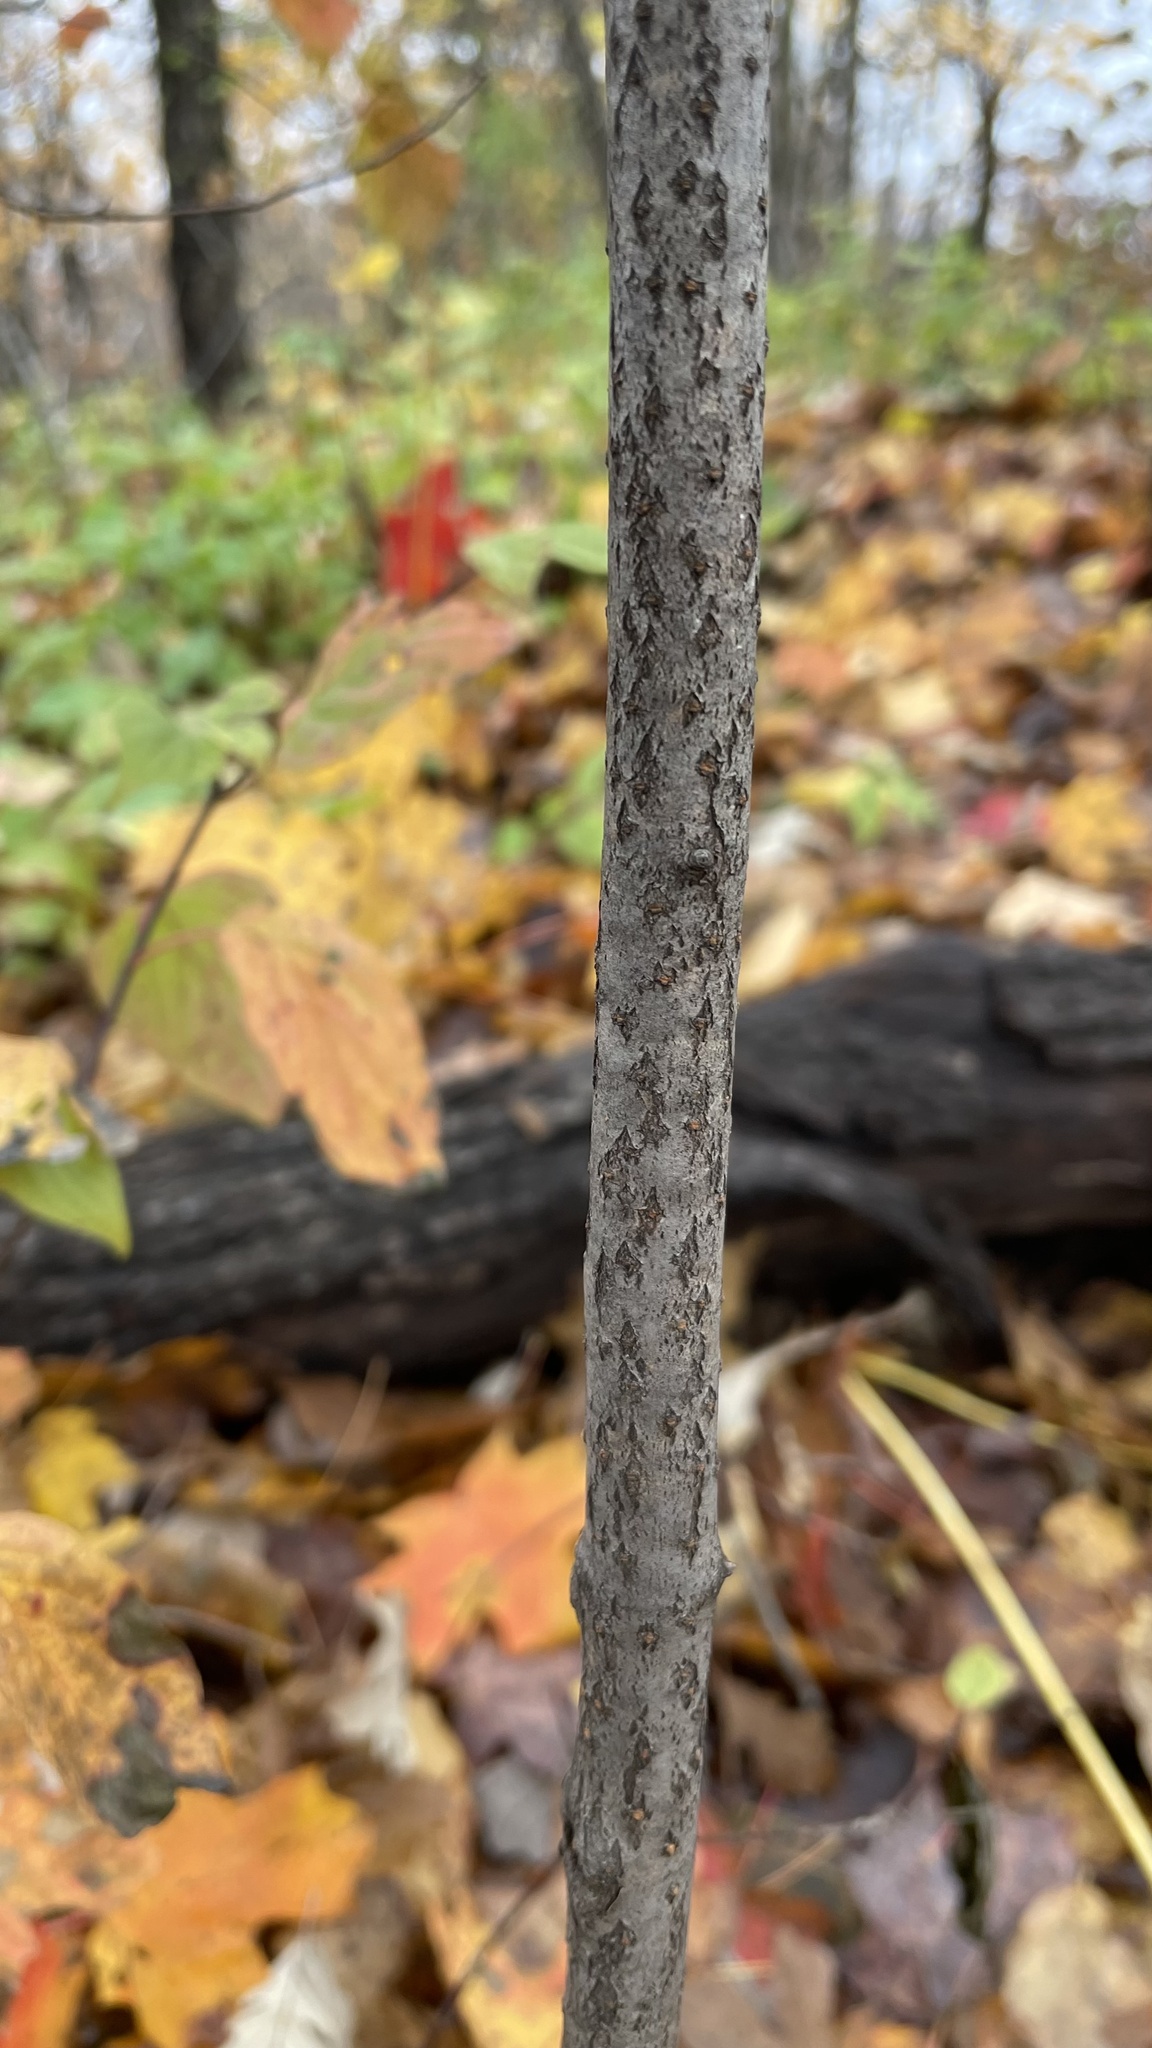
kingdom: Plantae
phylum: Tracheophyta
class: Magnoliopsida
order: Dipsacales
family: Viburnaceae
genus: Viburnum
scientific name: Viburnum rafinesqueanum
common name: Downy arrow-wood
